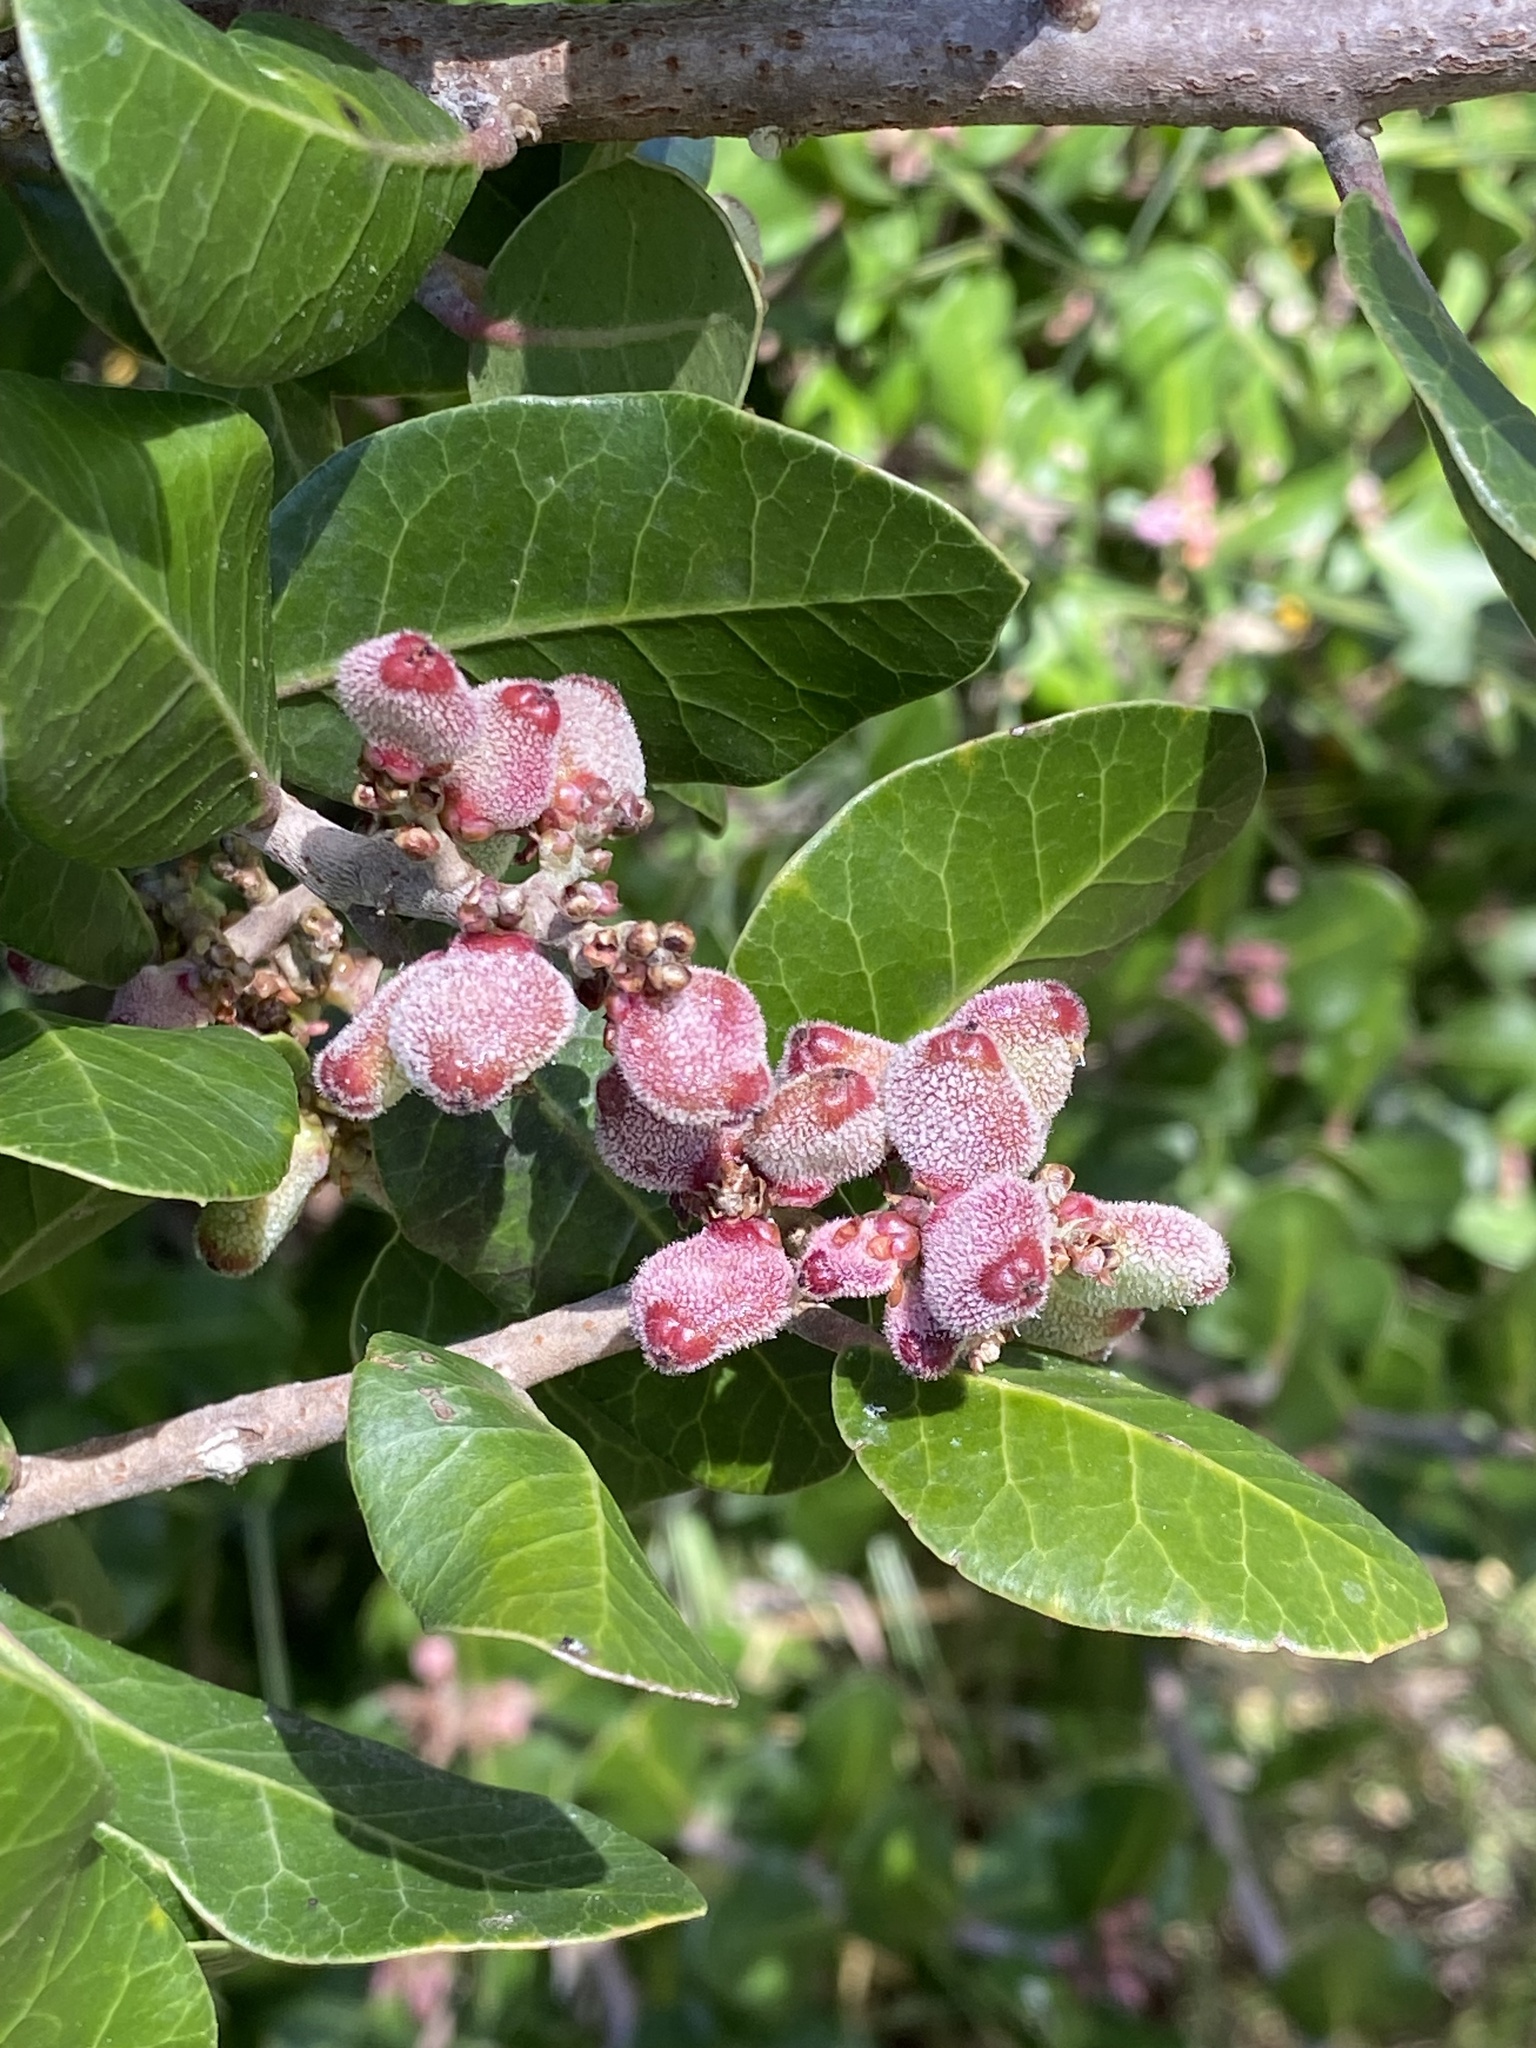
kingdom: Plantae
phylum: Tracheophyta
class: Magnoliopsida
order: Sapindales
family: Anacardiaceae
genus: Rhus
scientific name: Rhus integrifolia
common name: Lemonade sumac
